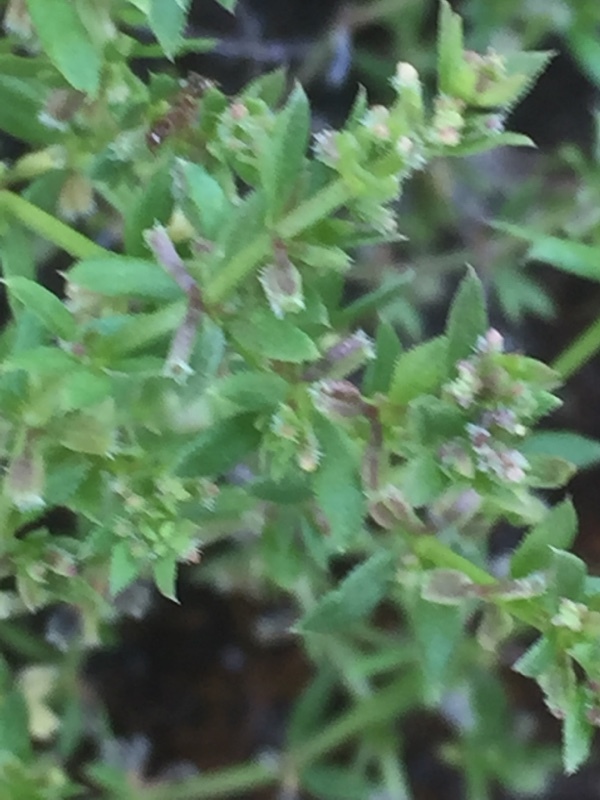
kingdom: Plantae
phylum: Tracheophyta
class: Magnoliopsida
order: Gentianales
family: Rubiaceae
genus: Galium
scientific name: Galium murale
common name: Yellow wall bedstraw
